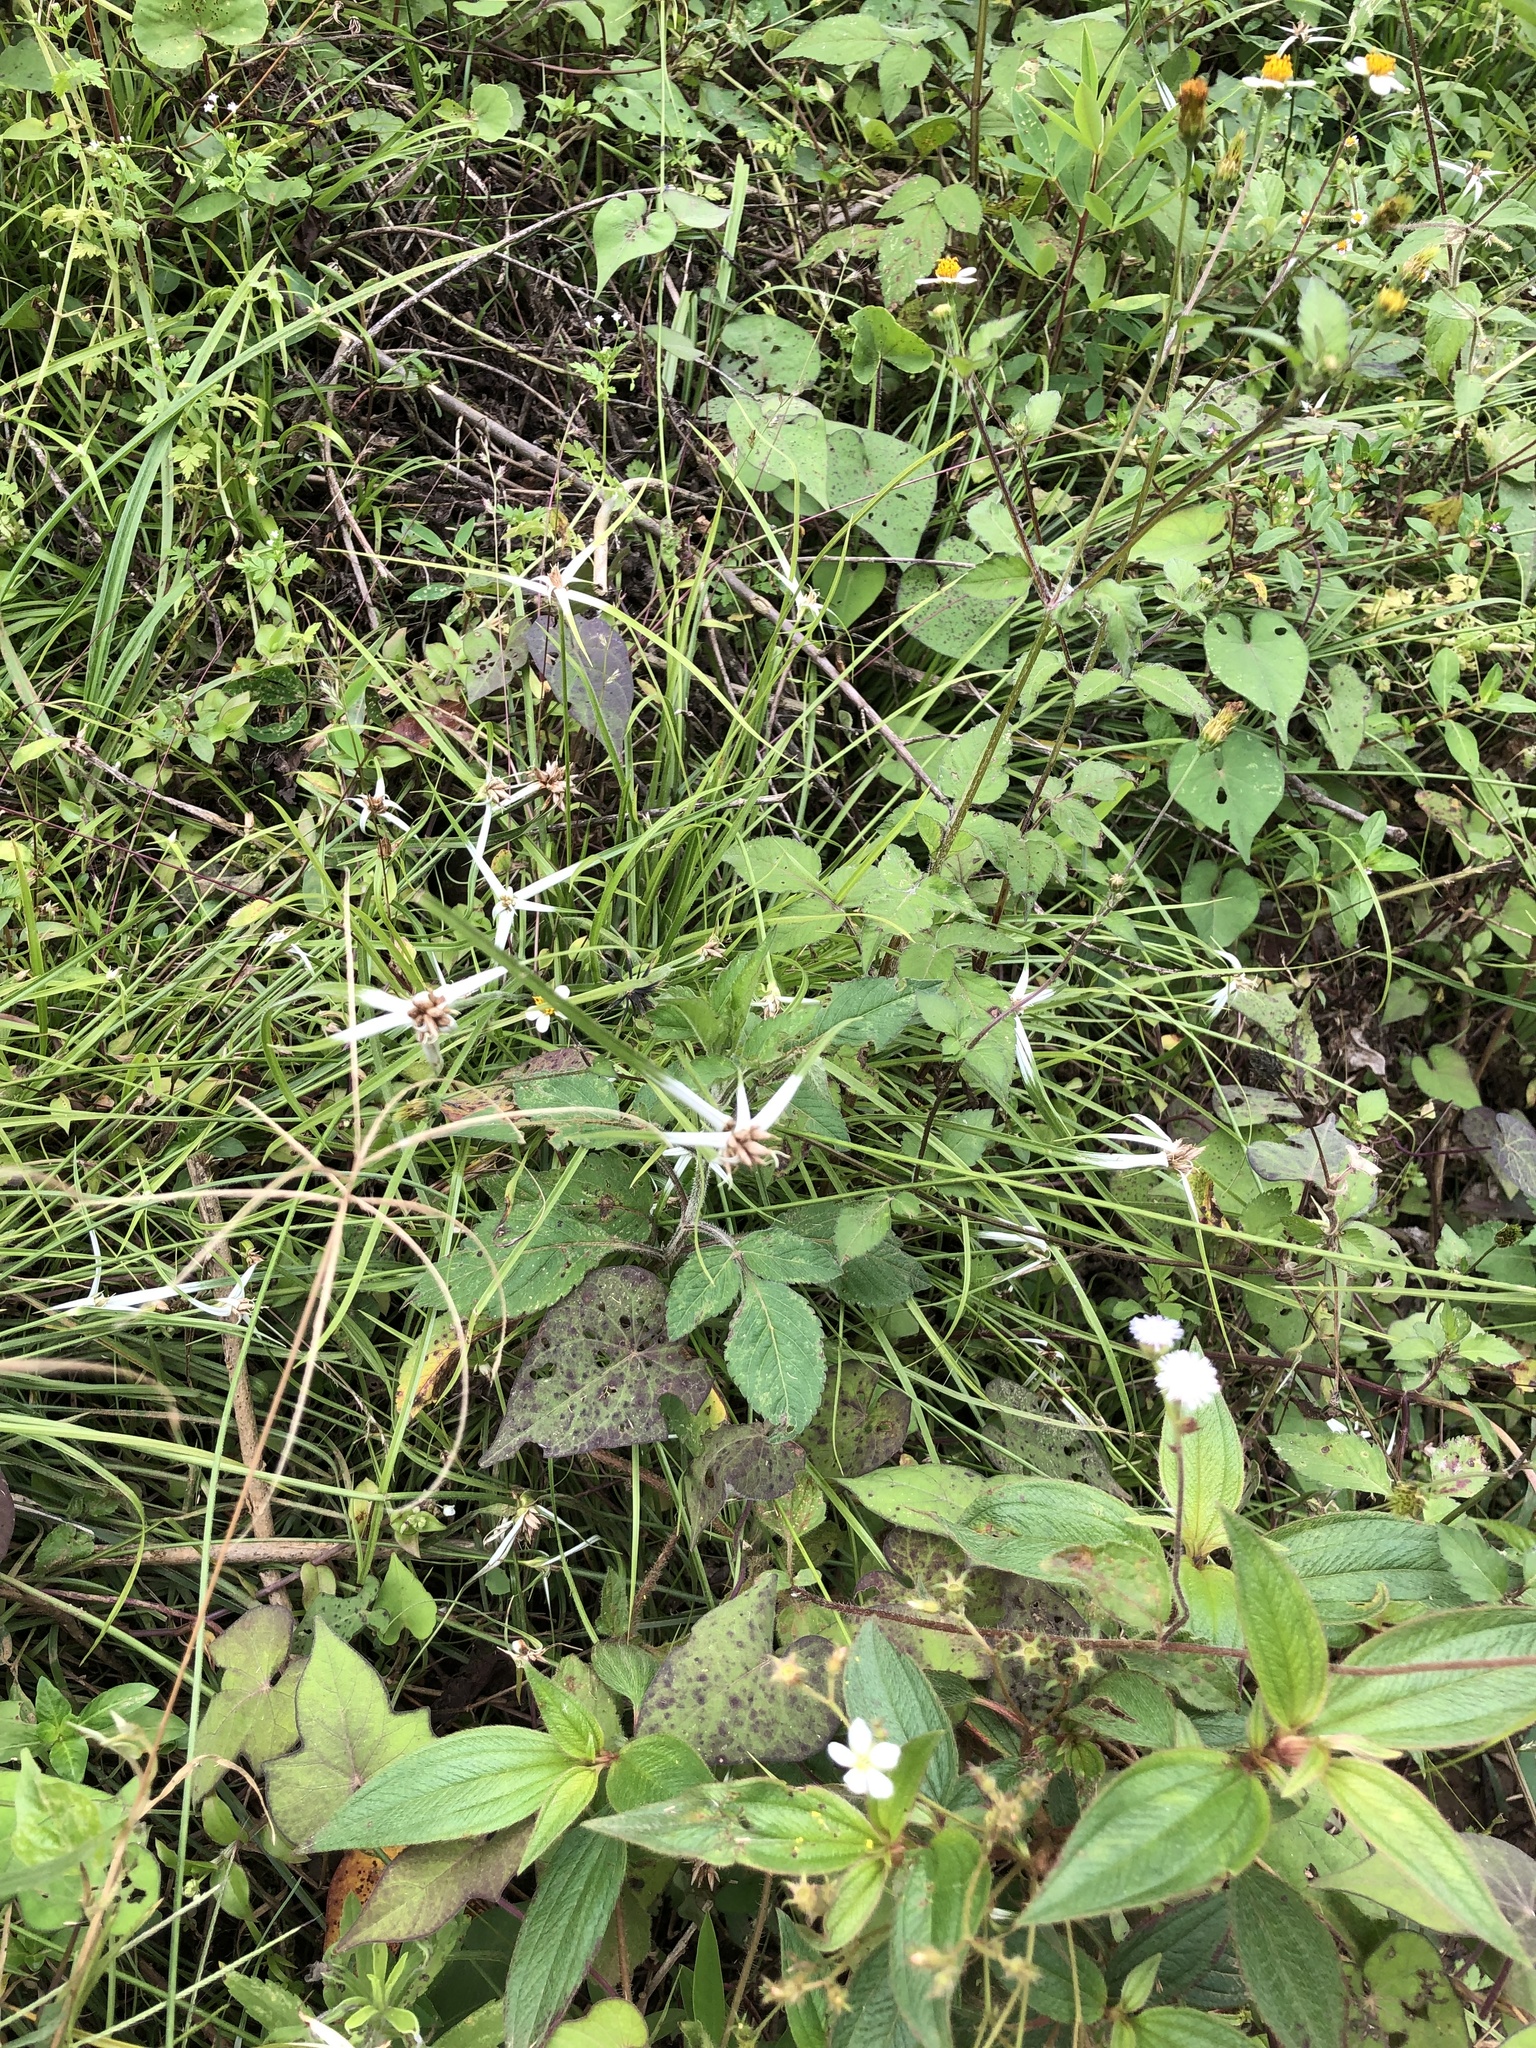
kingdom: Plantae
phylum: Tracheophyta
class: Liliopsida
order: Poales
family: Cyperaceae
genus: Rhynchospora
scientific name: Rhynchospora nervosa
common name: Star sedge
